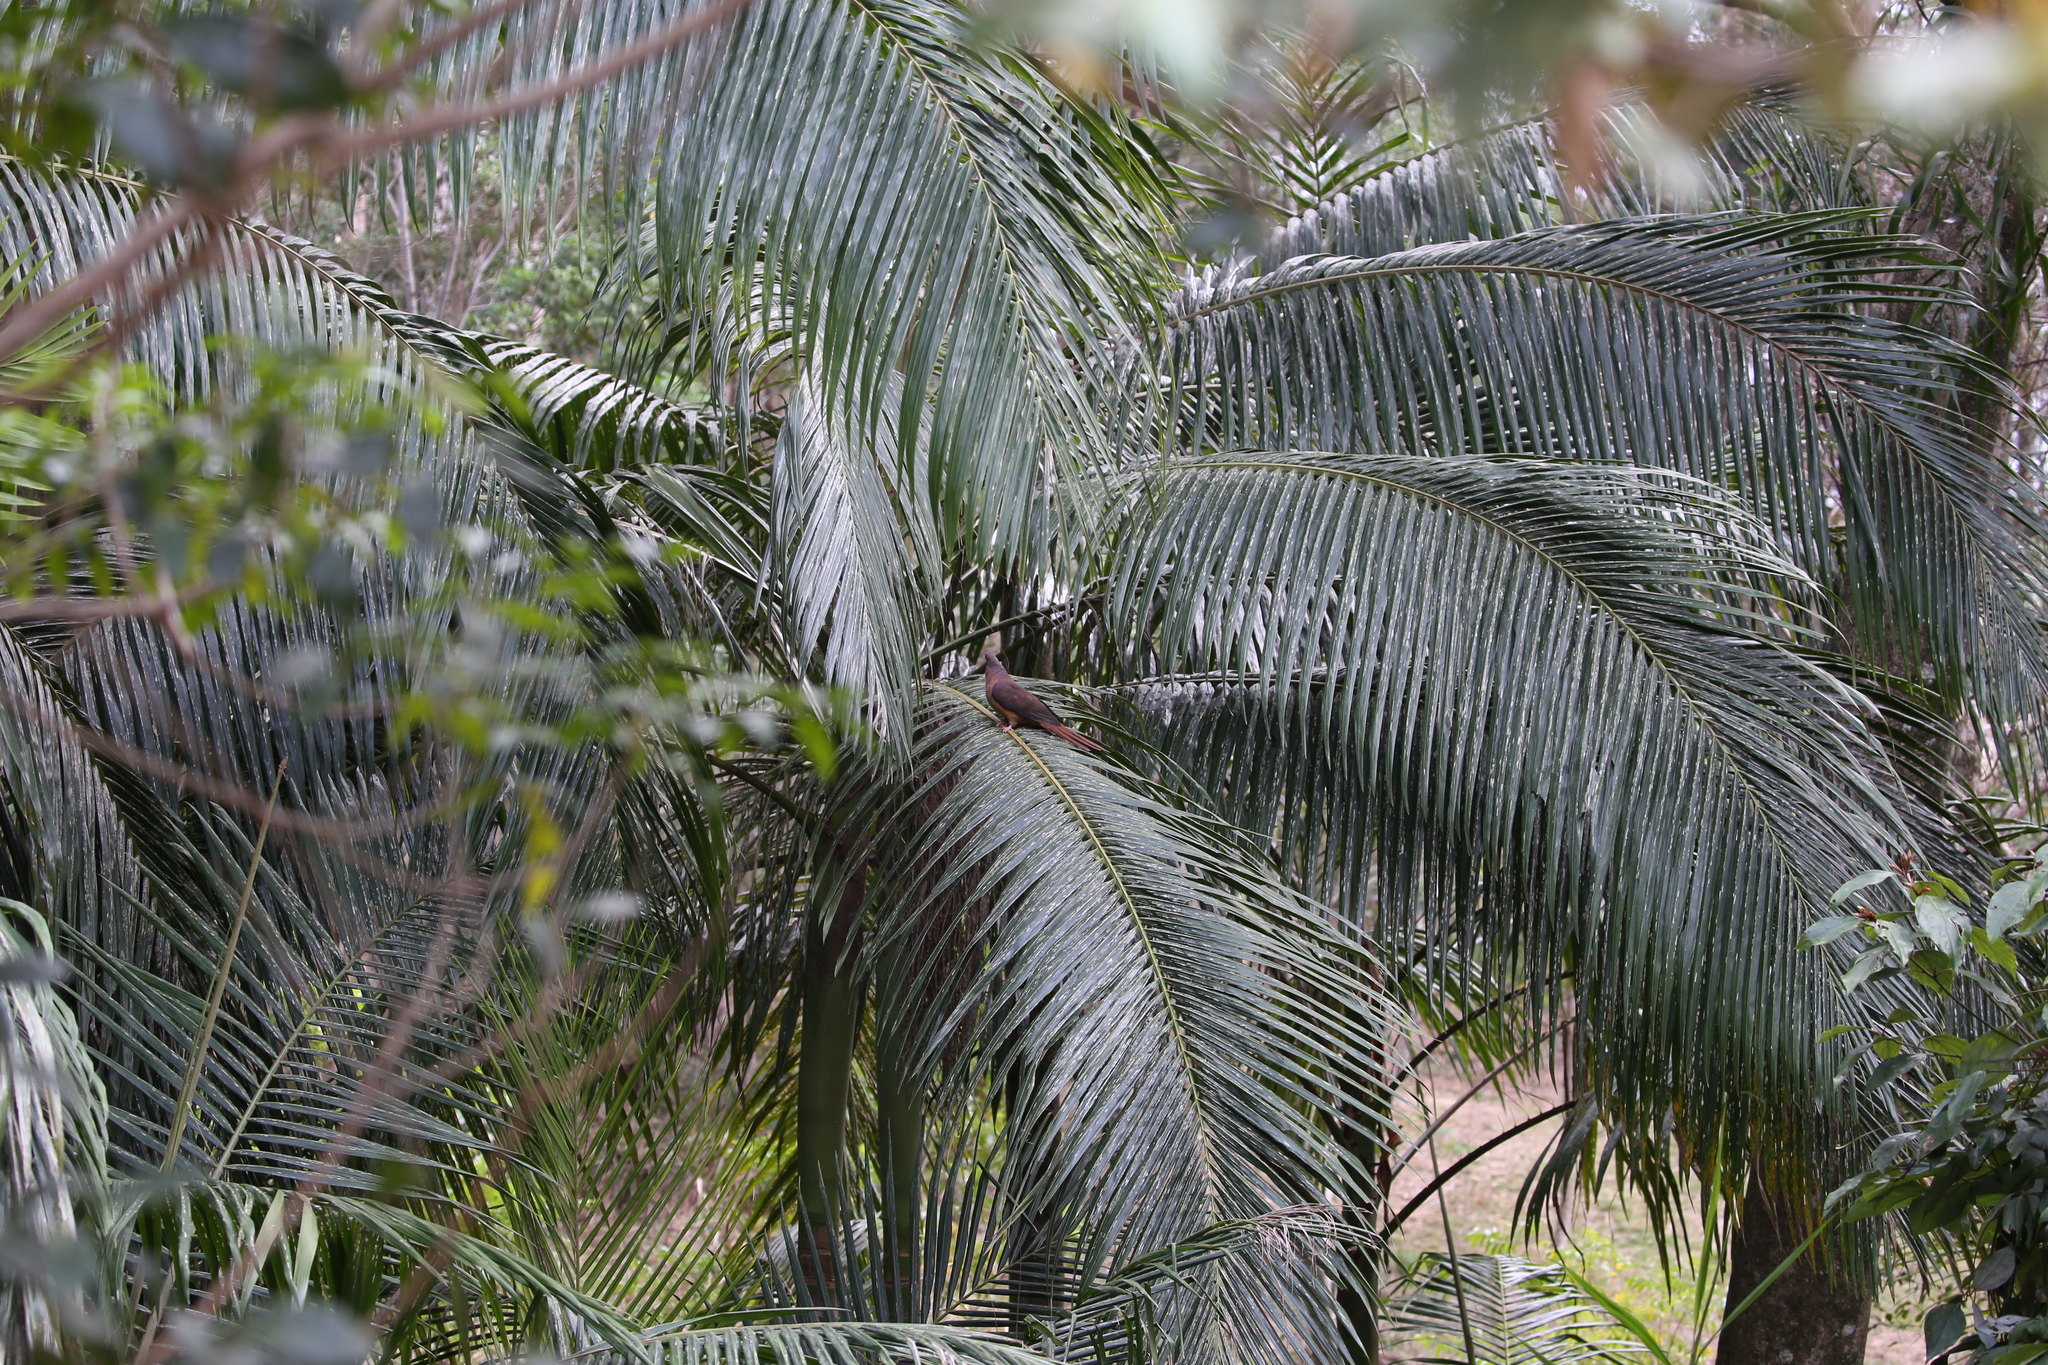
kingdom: Animalia
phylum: Chordata
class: Aves
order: Columbiformes
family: Columbidae
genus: Macropygia
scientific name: Macropygia phasianella
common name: Brown cuckoo-dove
